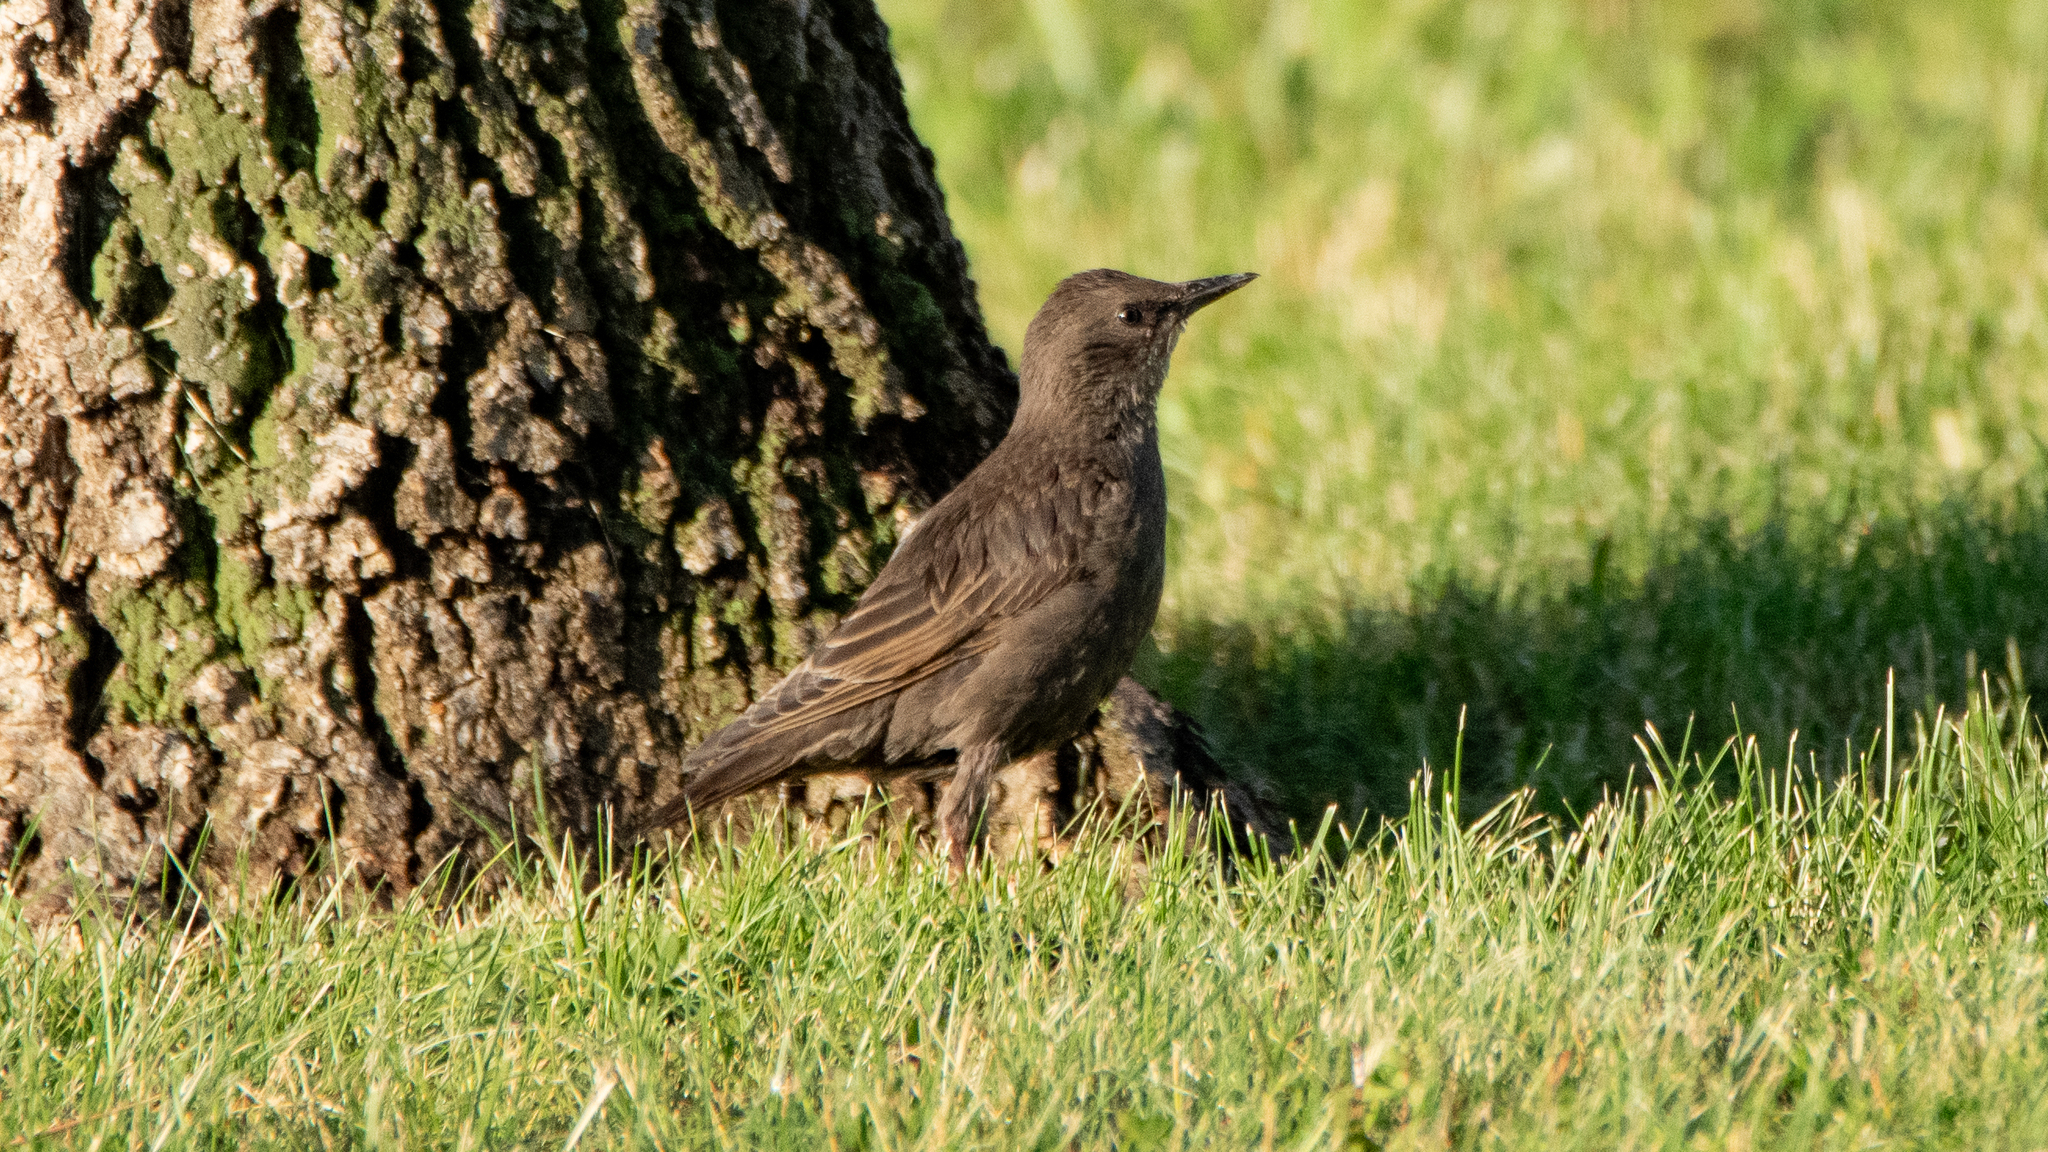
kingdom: Animalia
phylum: Chordata
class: Aves
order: Passeriformes
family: Sturnidae
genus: Sturnus
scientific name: Sturnus vulgaris
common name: Common starling
